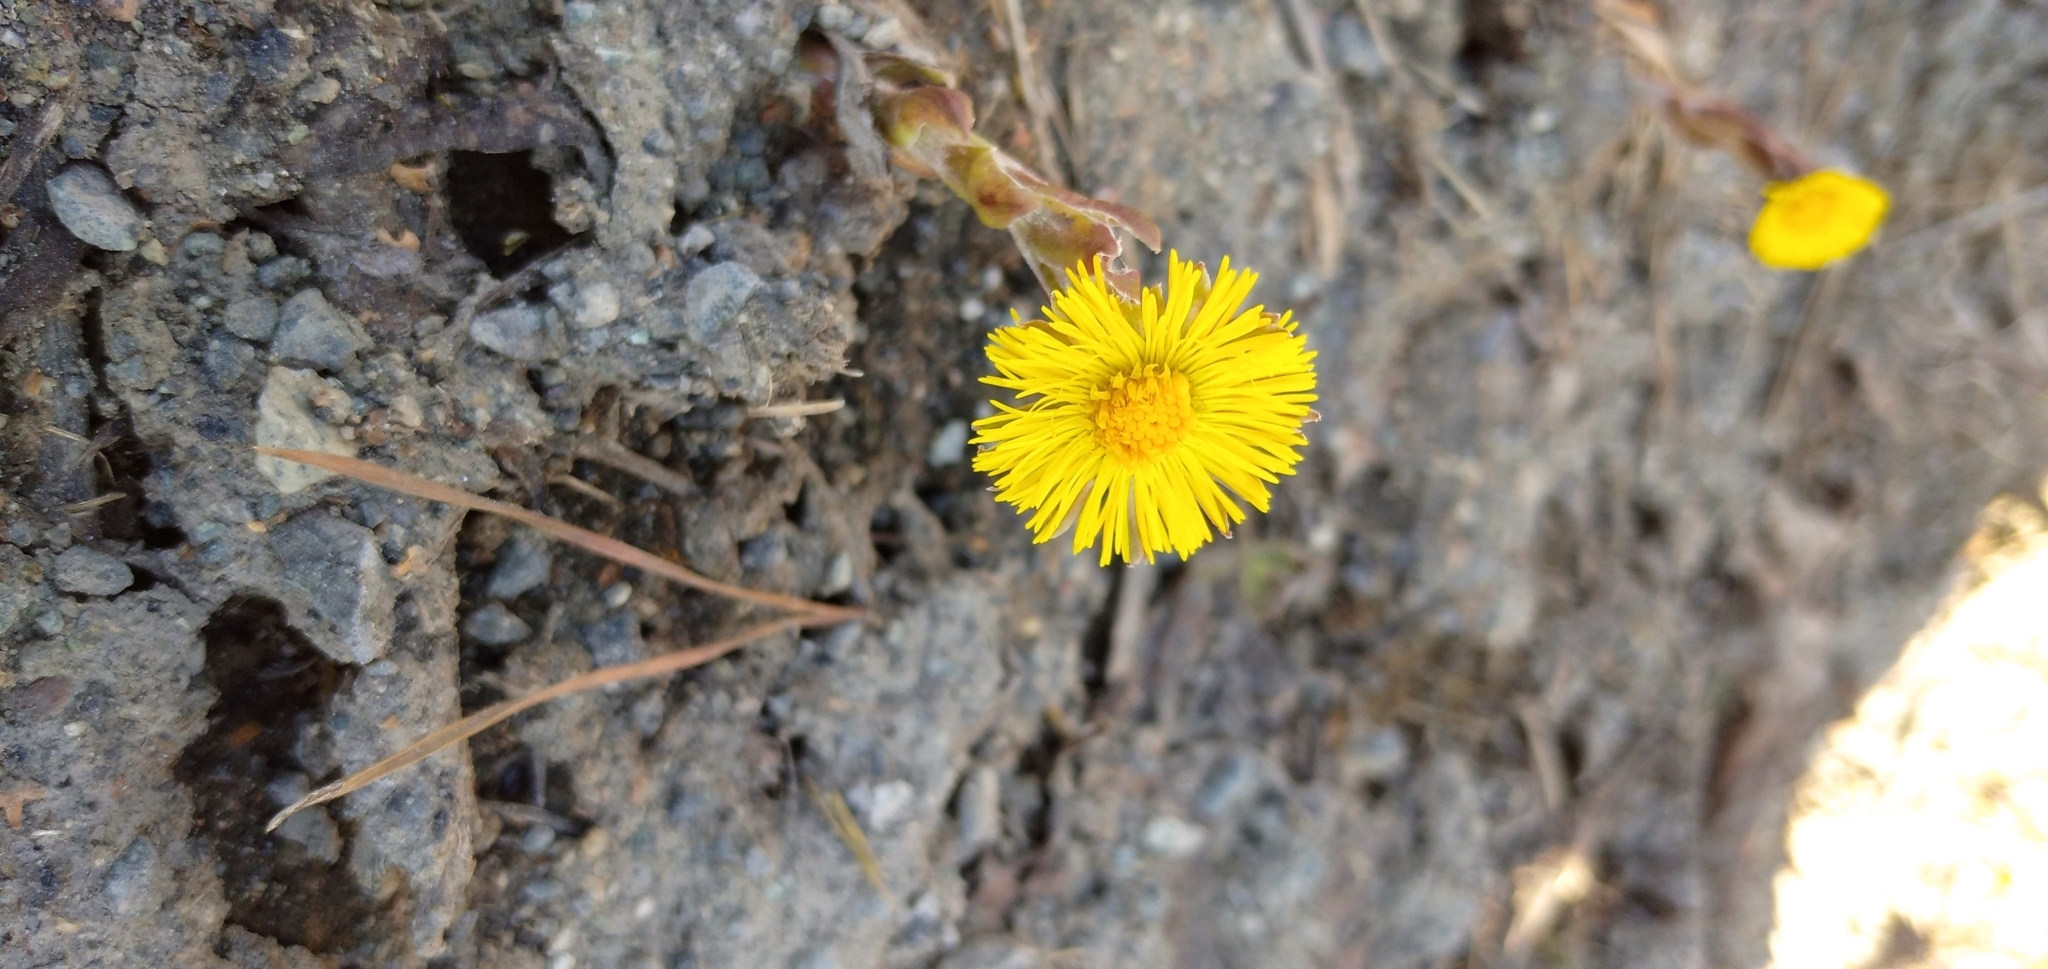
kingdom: Plantae
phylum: Tracheophyta
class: Magnoliopsida
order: Asterales
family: Asteraceae
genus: Tussilago
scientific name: Tussilago farfara
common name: Coltsfoot
